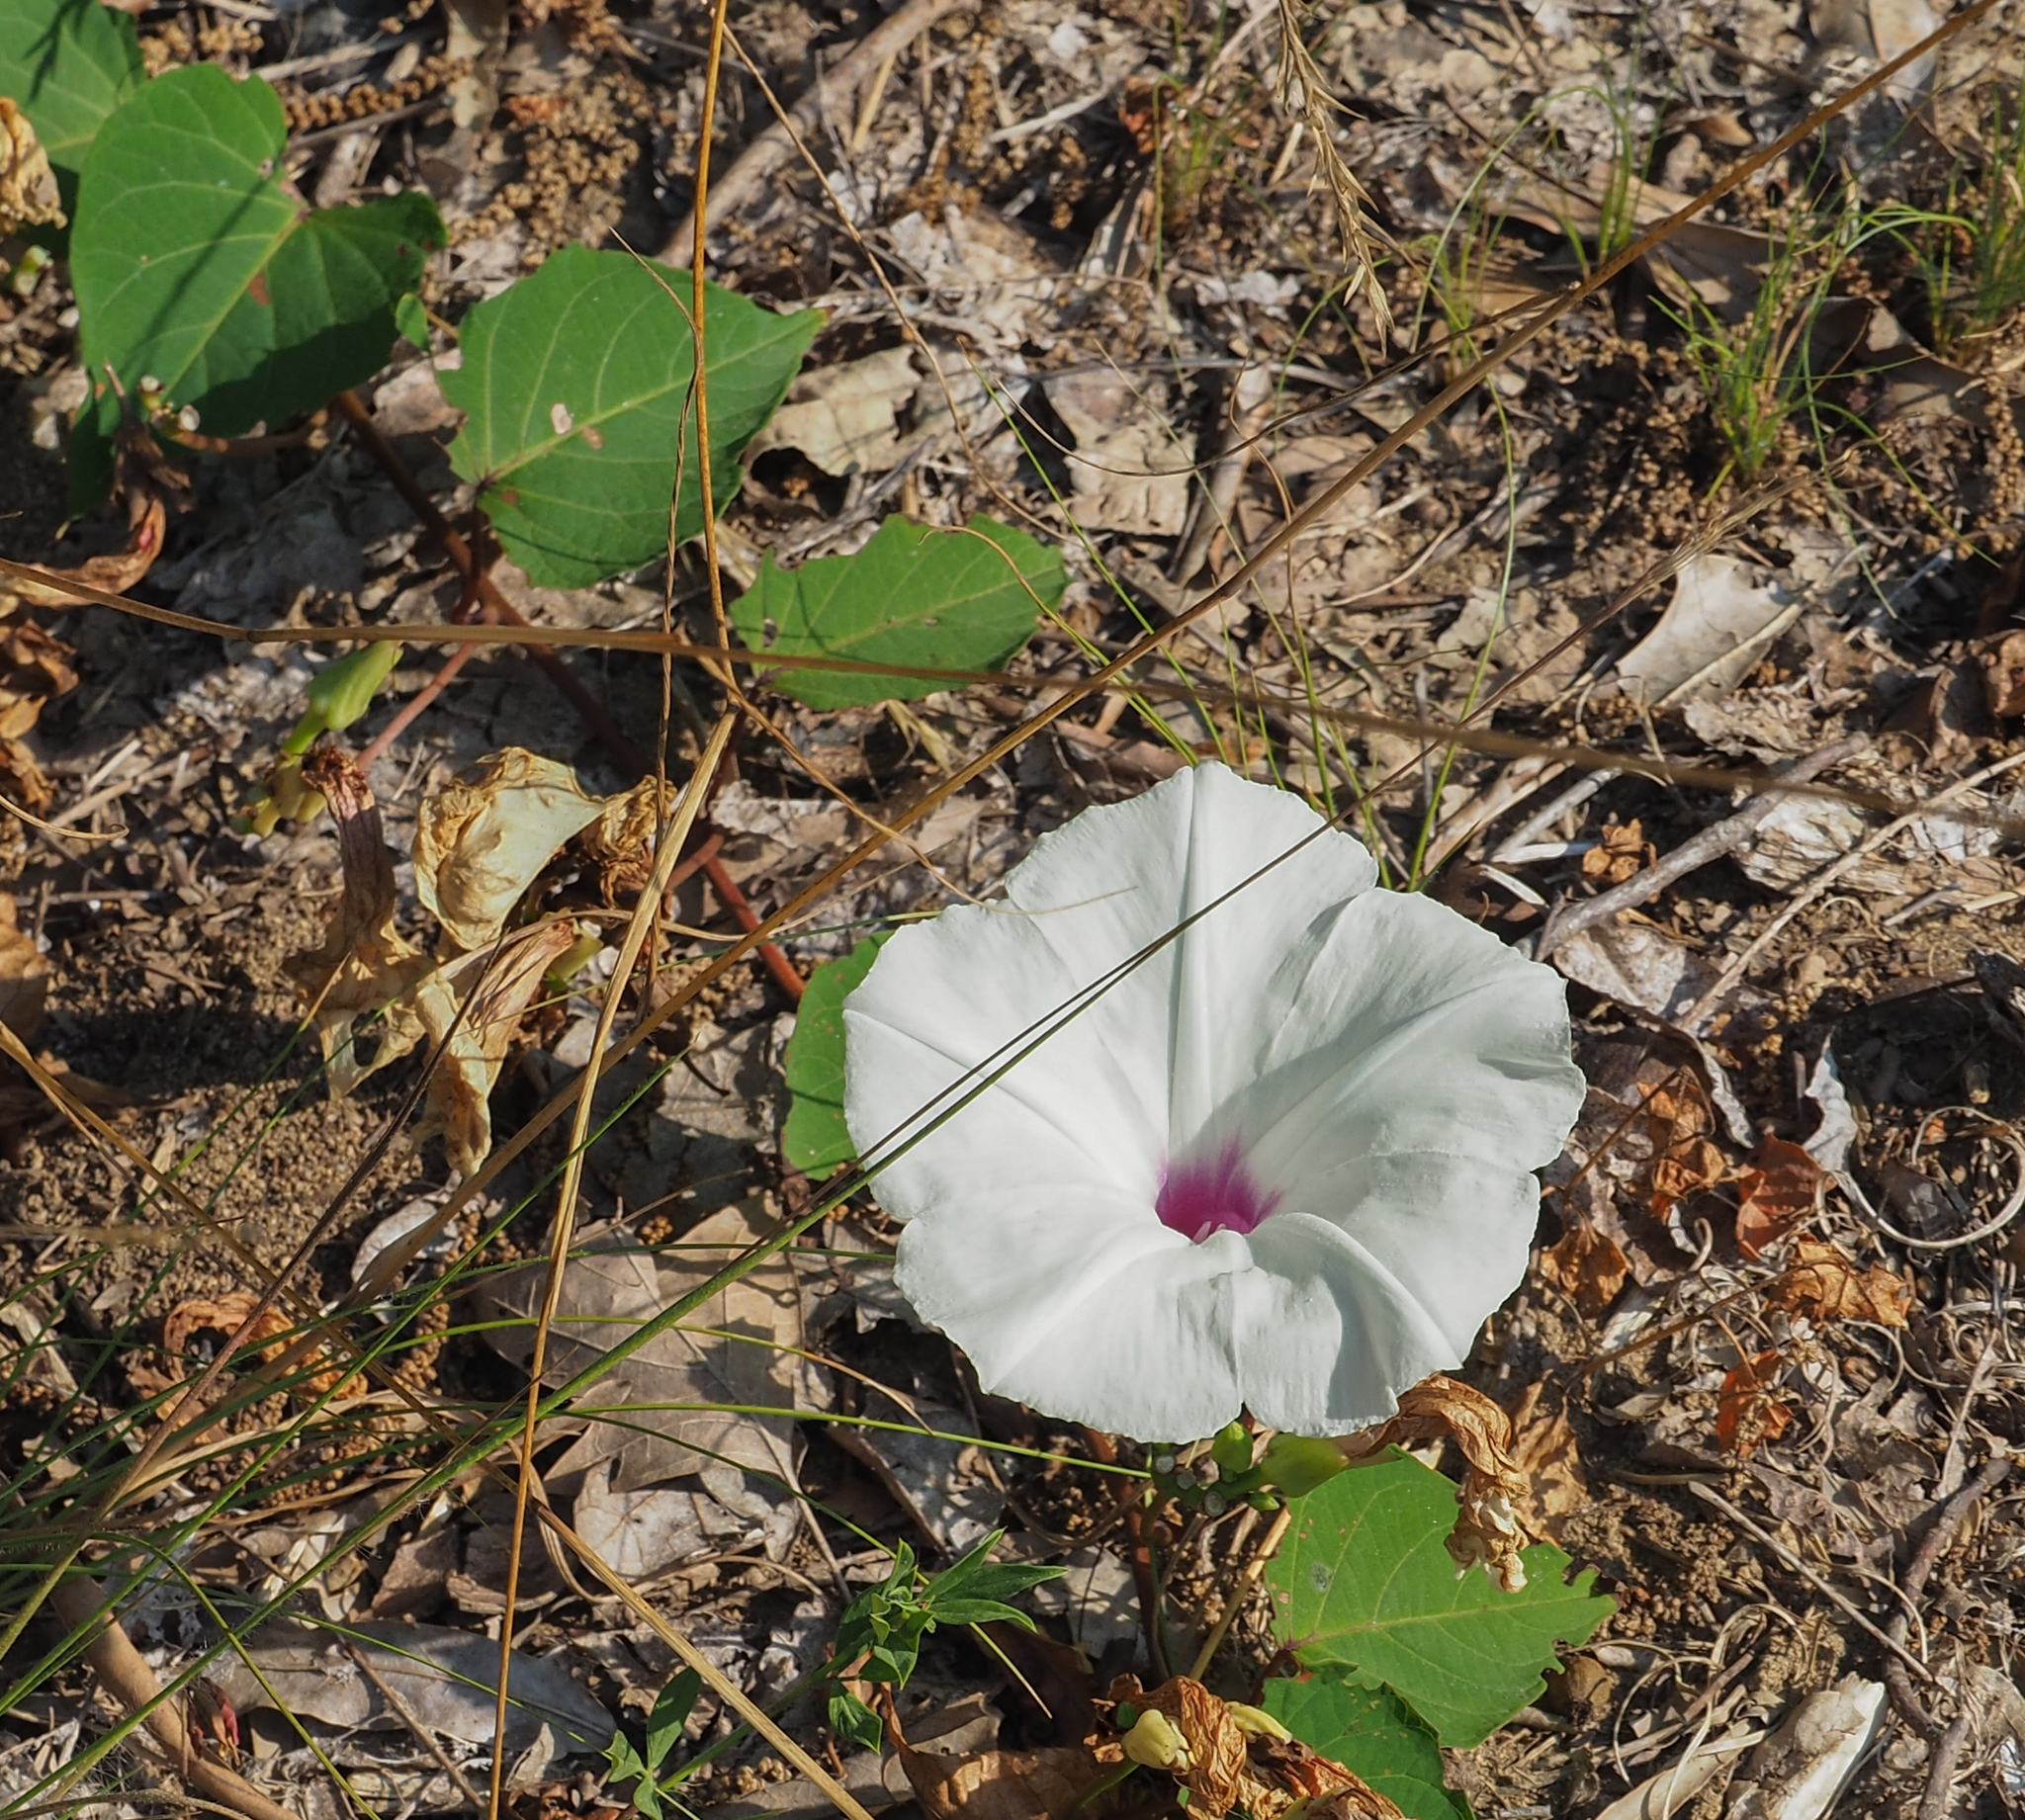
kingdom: Plantae
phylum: Tracheophyta
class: Magnoliopsida
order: Solanales
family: Convolvulaceae
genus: Ipomoea
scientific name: Ipomoea pandurata
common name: Man-of-the-earth
